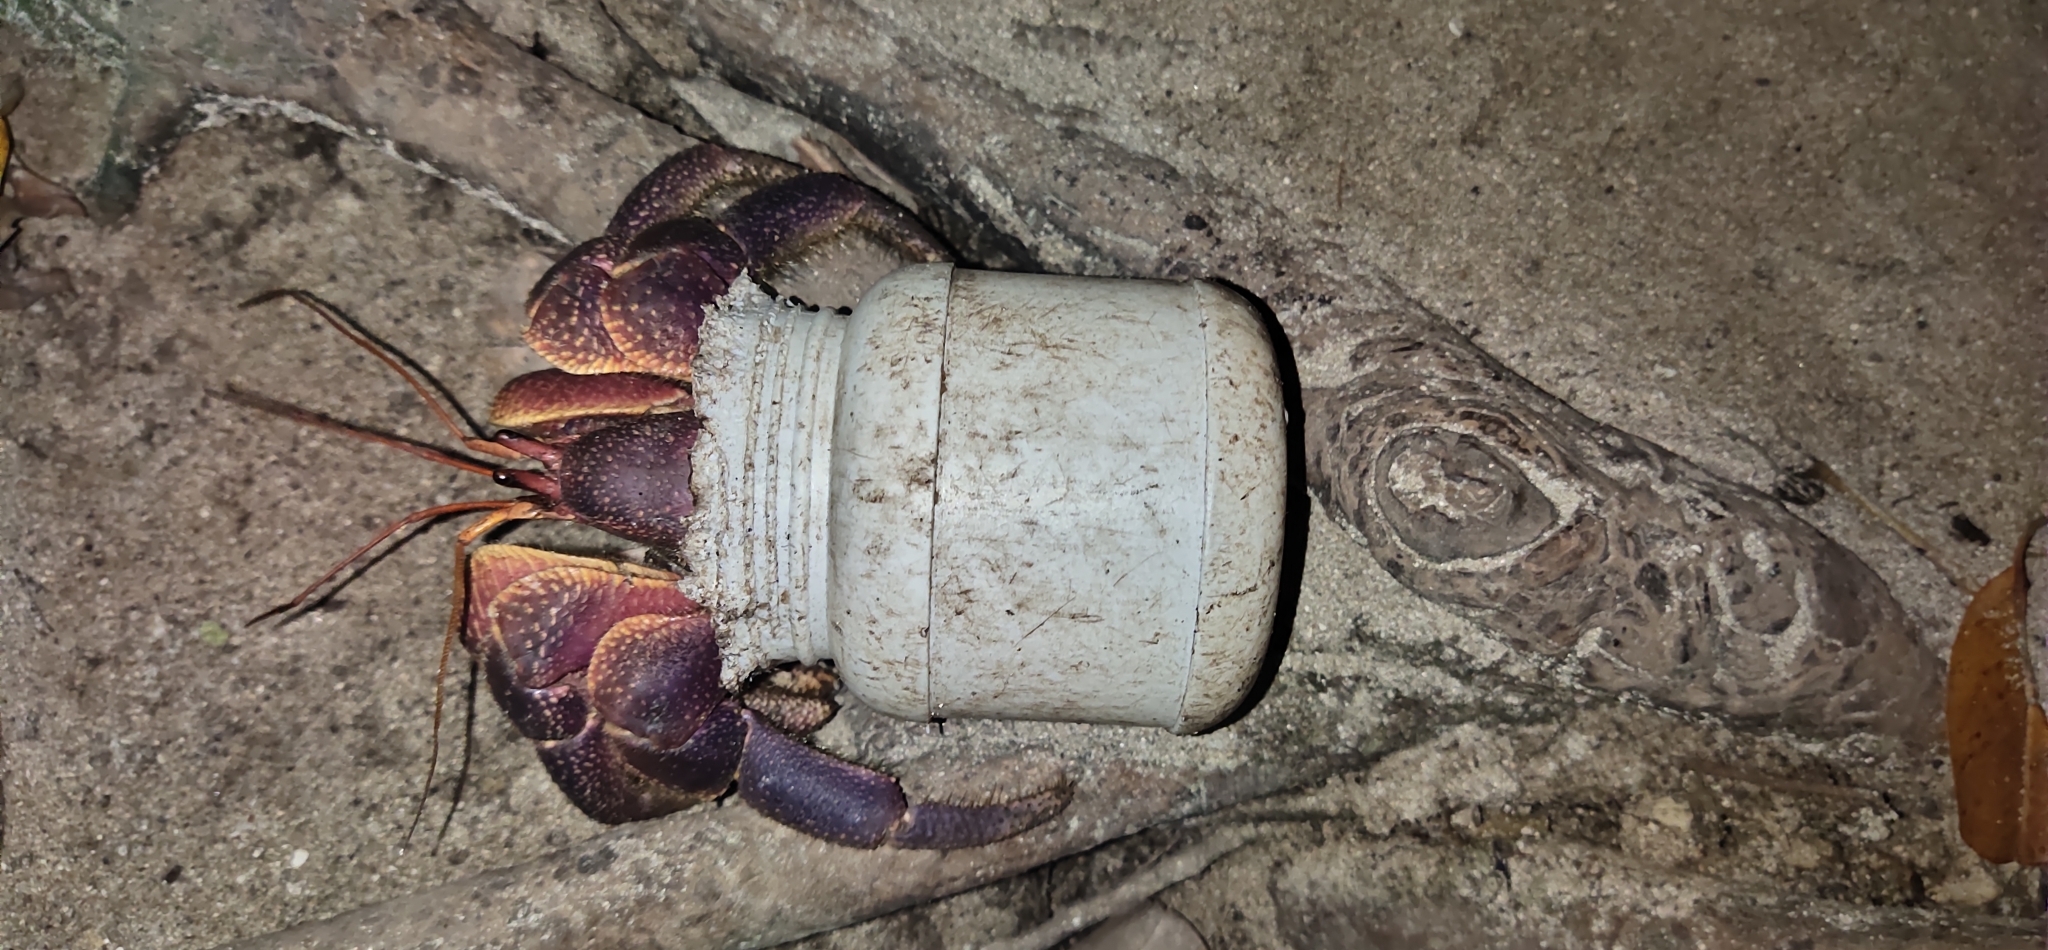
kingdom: Animalia
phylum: Arthropoda
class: Malacostraca
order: Decapoda
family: Coenobitidae
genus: Coenobita
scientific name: Coenobita brevimanus
